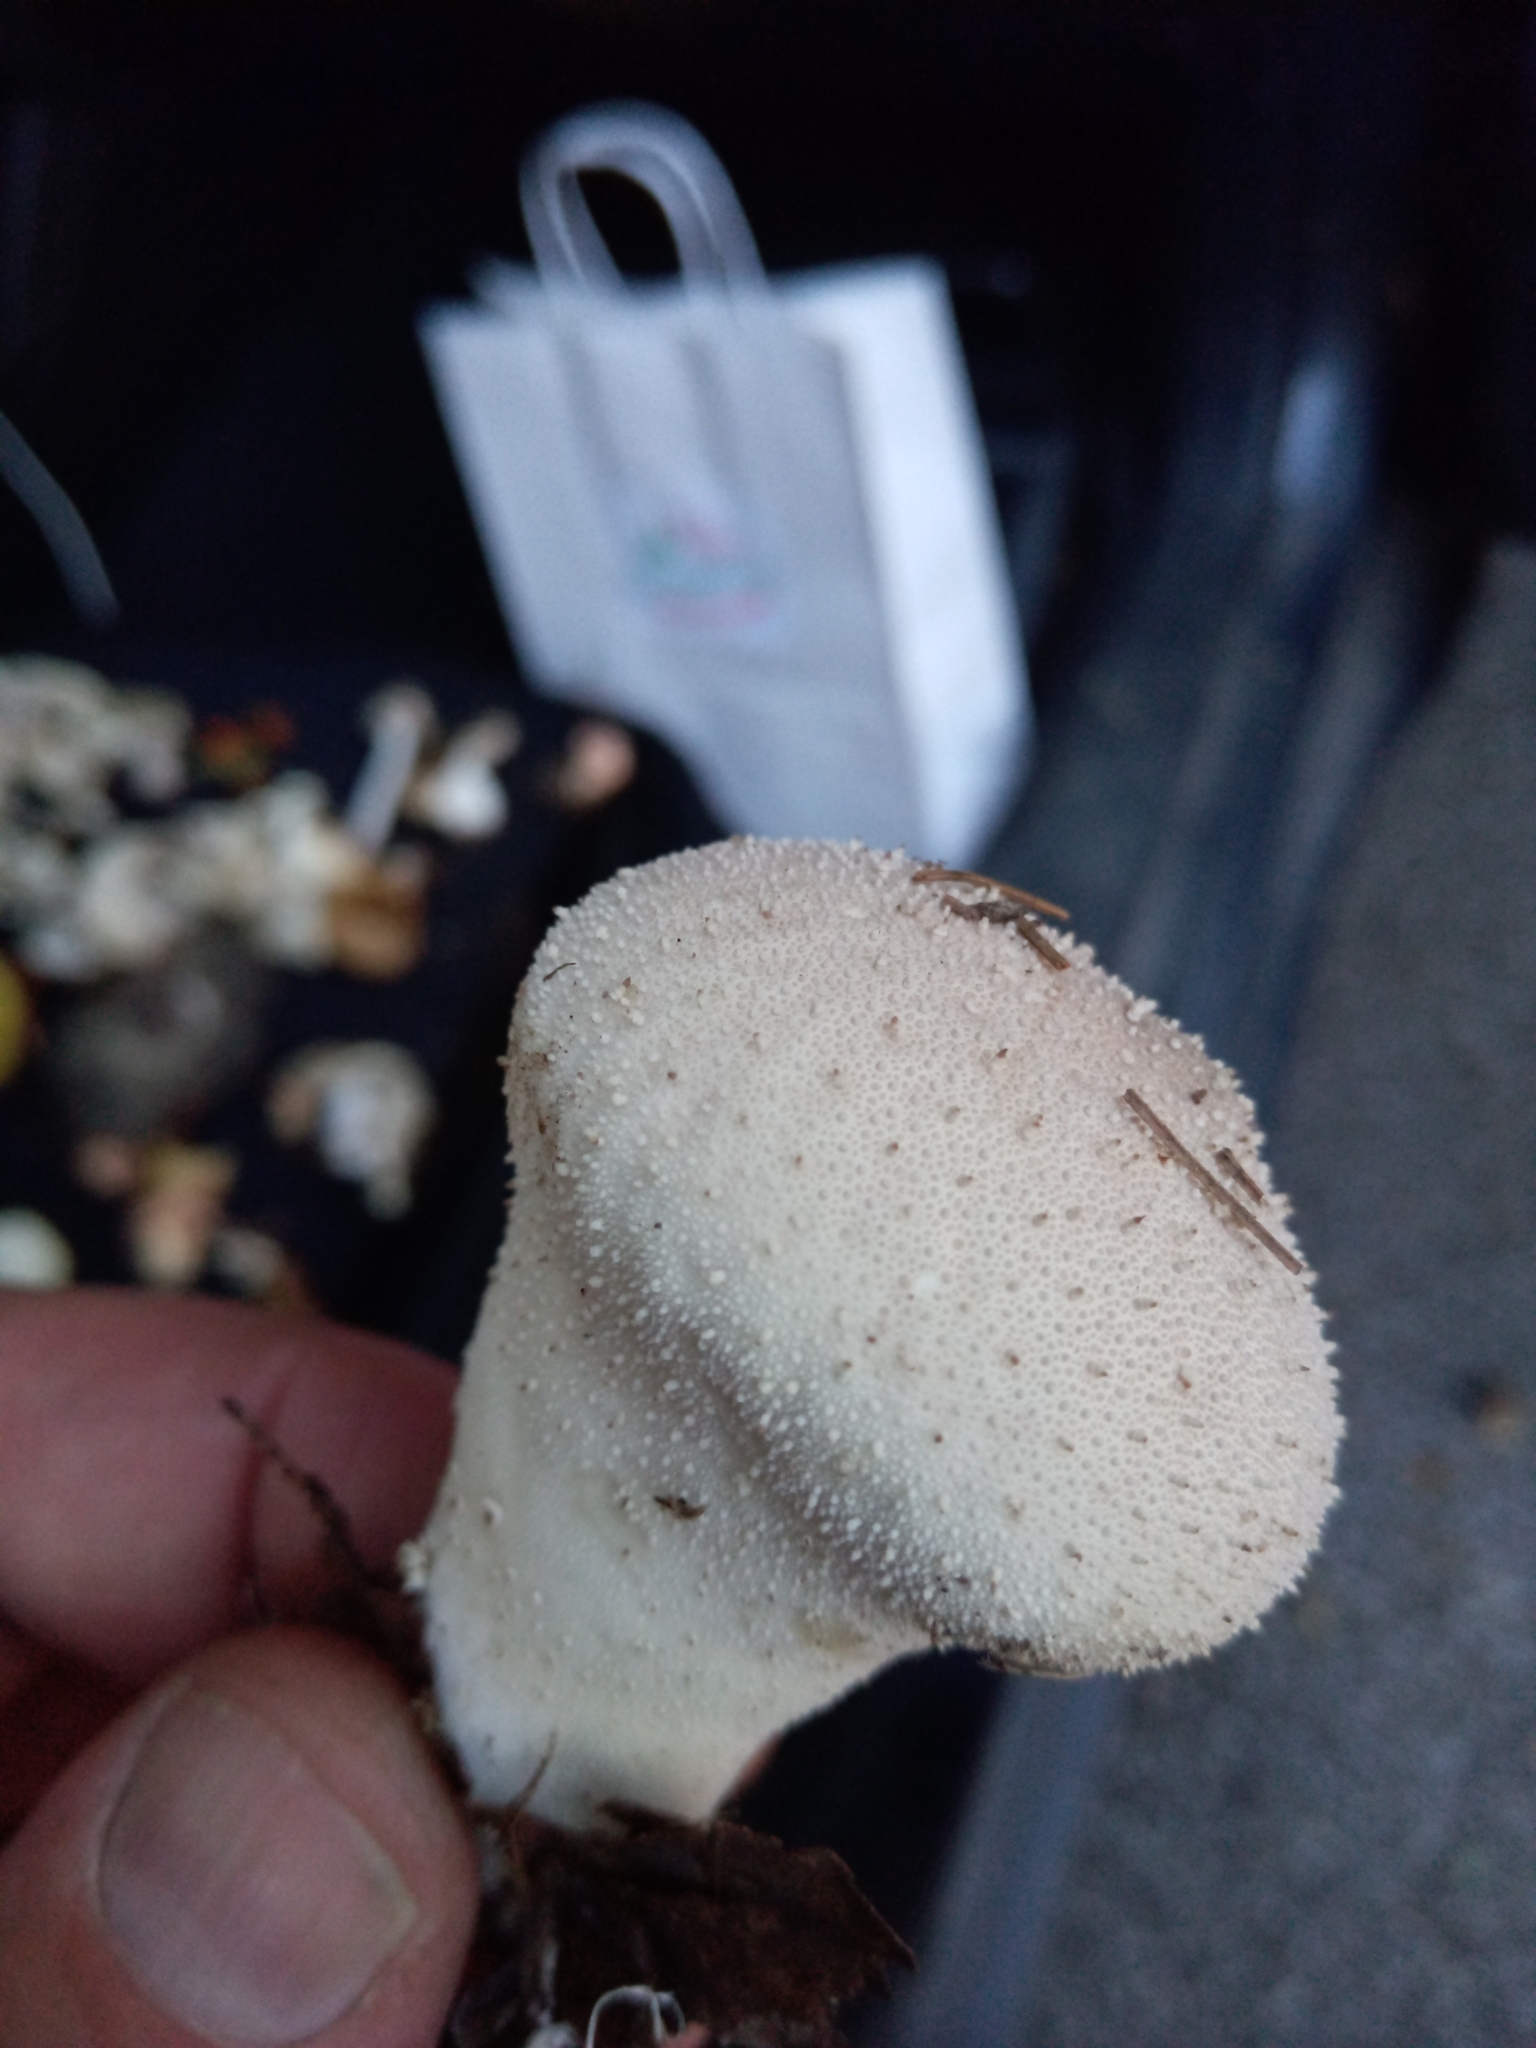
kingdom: Fungi
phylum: Basidiomycota
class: Agaricomycetes
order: Agaricales
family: Lycoperdaceae
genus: Lycoperdon
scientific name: Lycoperdon perlatum
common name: Common puffball
